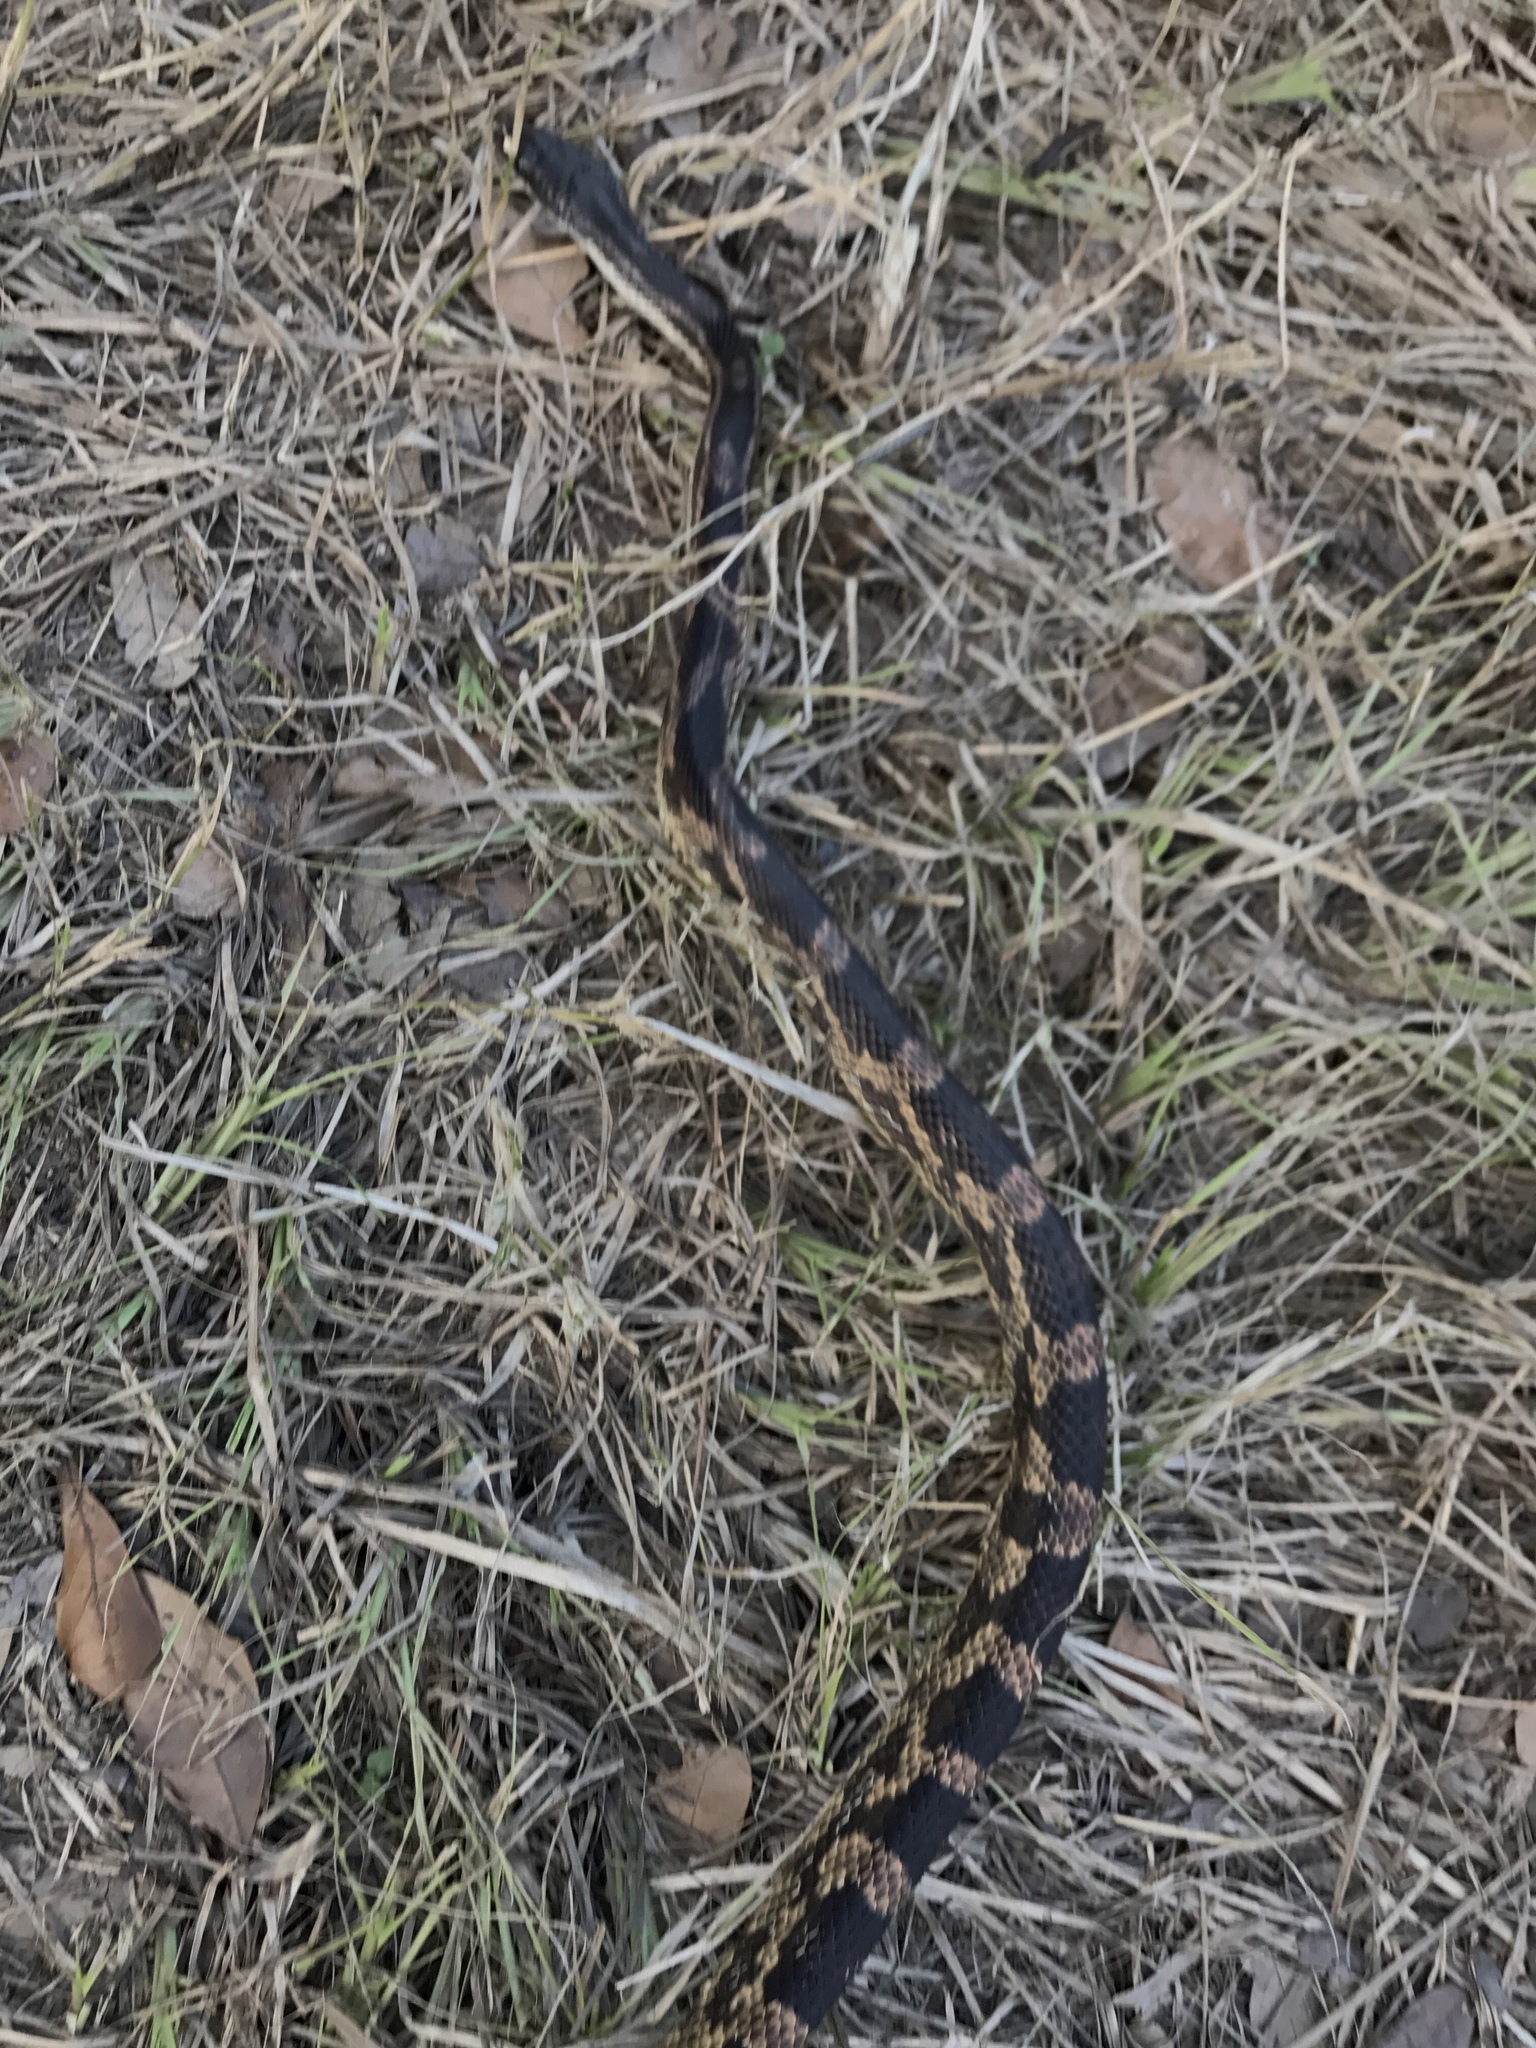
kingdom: Animalia
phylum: Chordata
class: Squamata
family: Colubridae
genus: Pantherophis
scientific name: Pantherophis obsoletus
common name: Black rat snake
